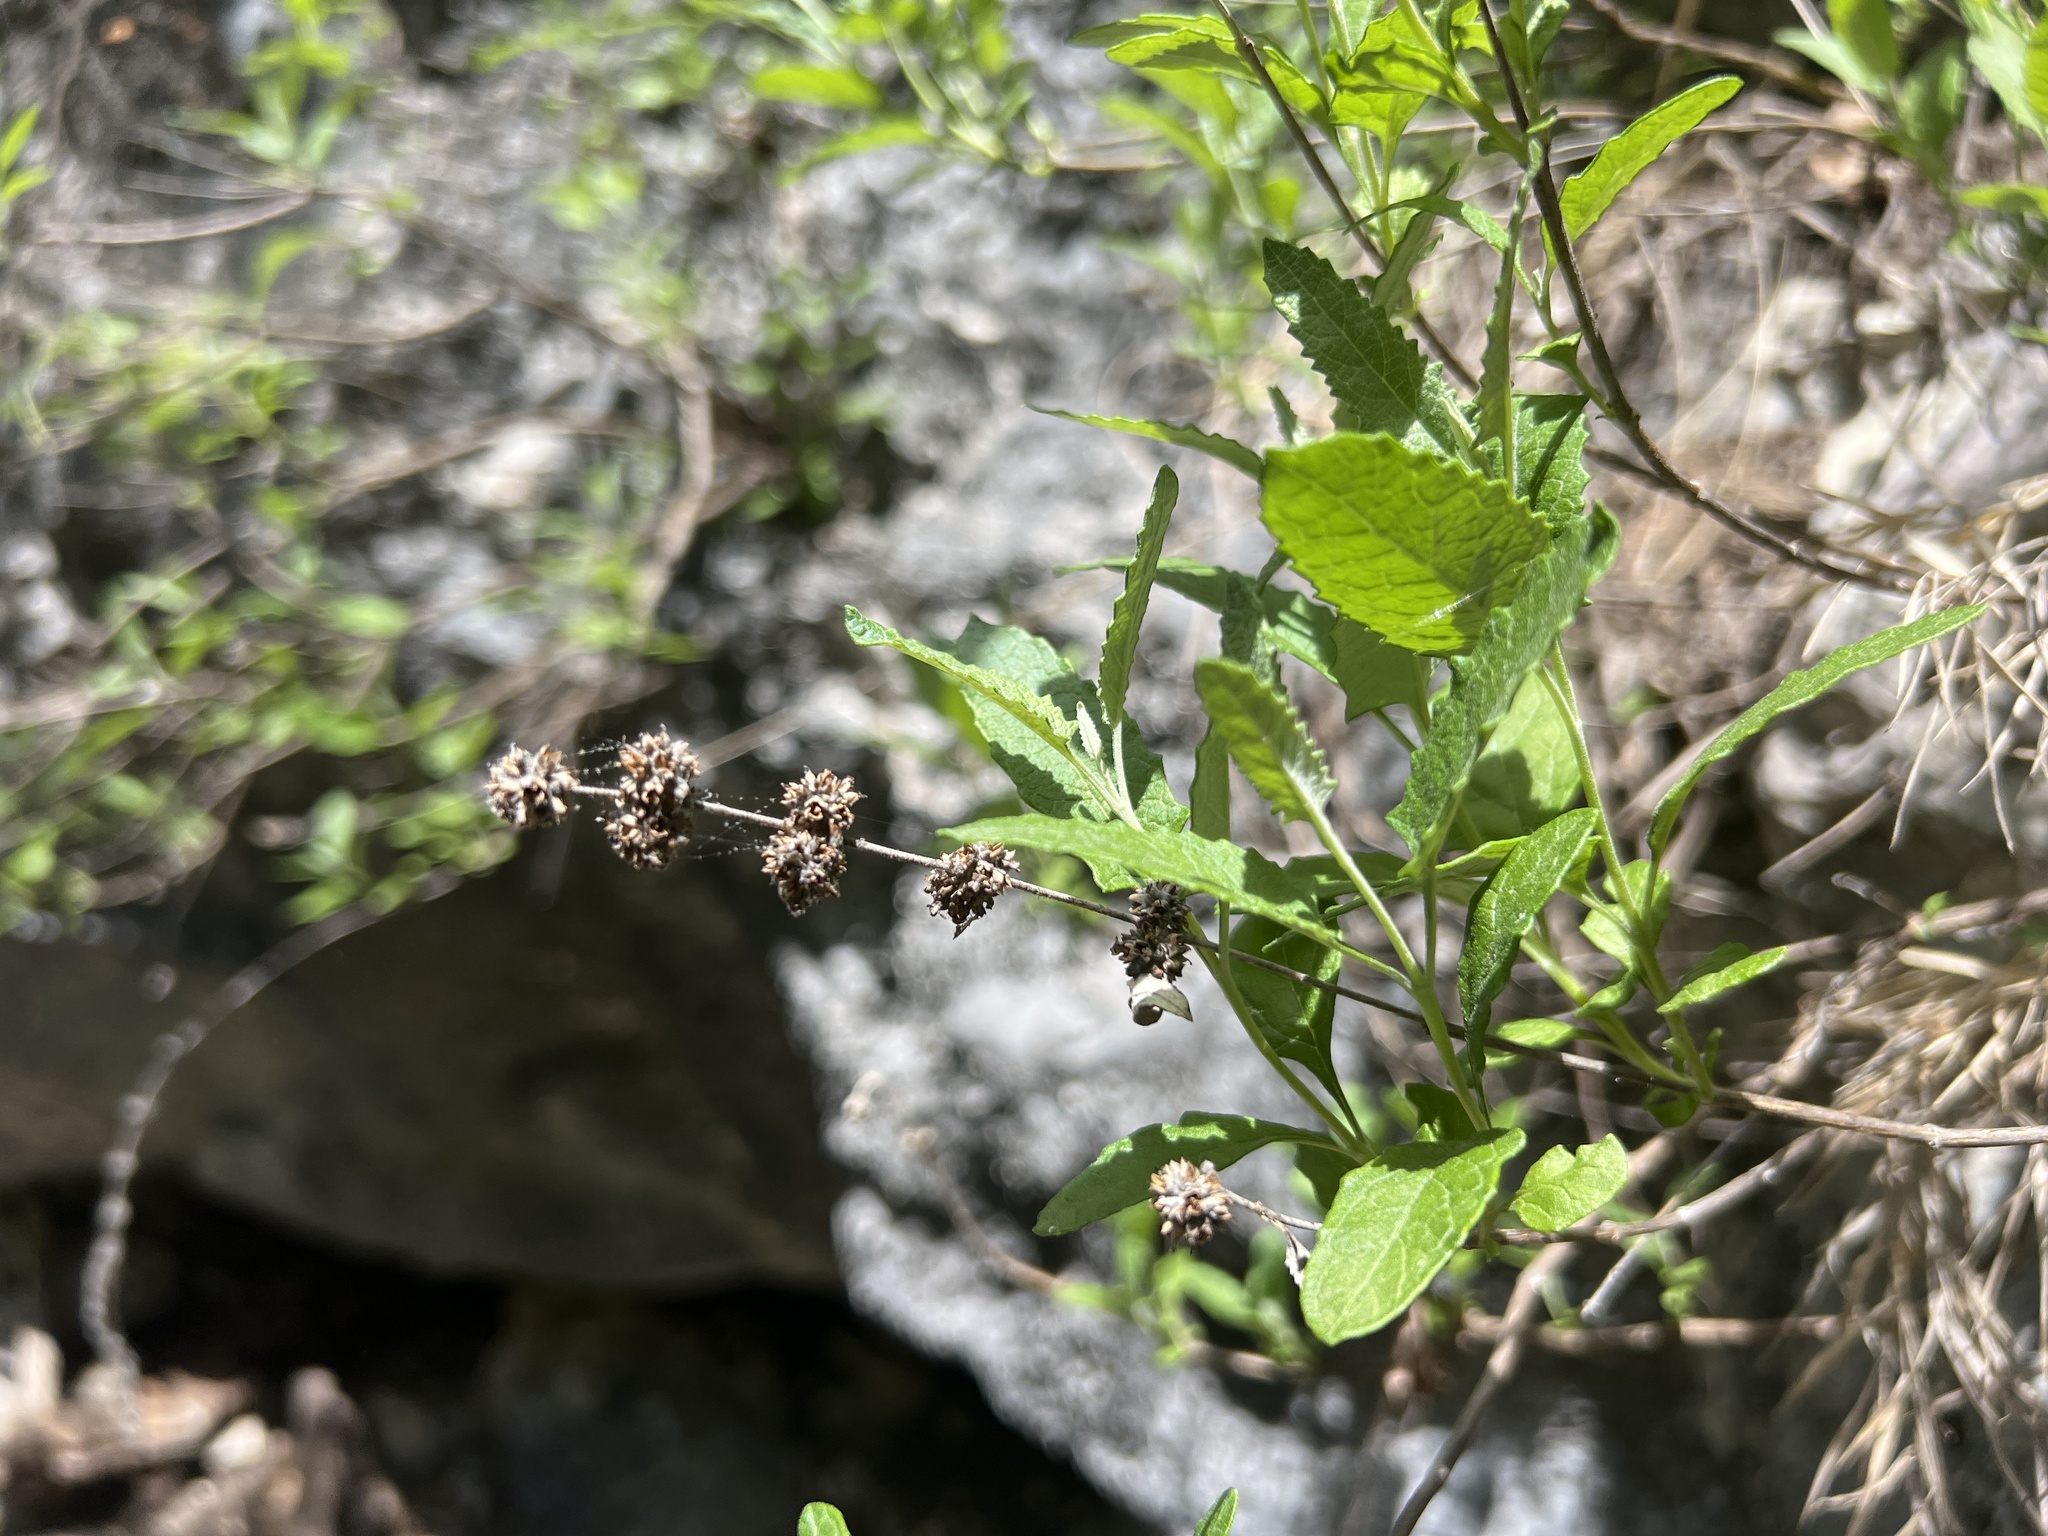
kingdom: Plantae
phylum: Tracheophyta
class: Magnoliopsida
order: Lamiales
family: Scrophulariaceae
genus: Buddleja
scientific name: Buddleja racemosa
